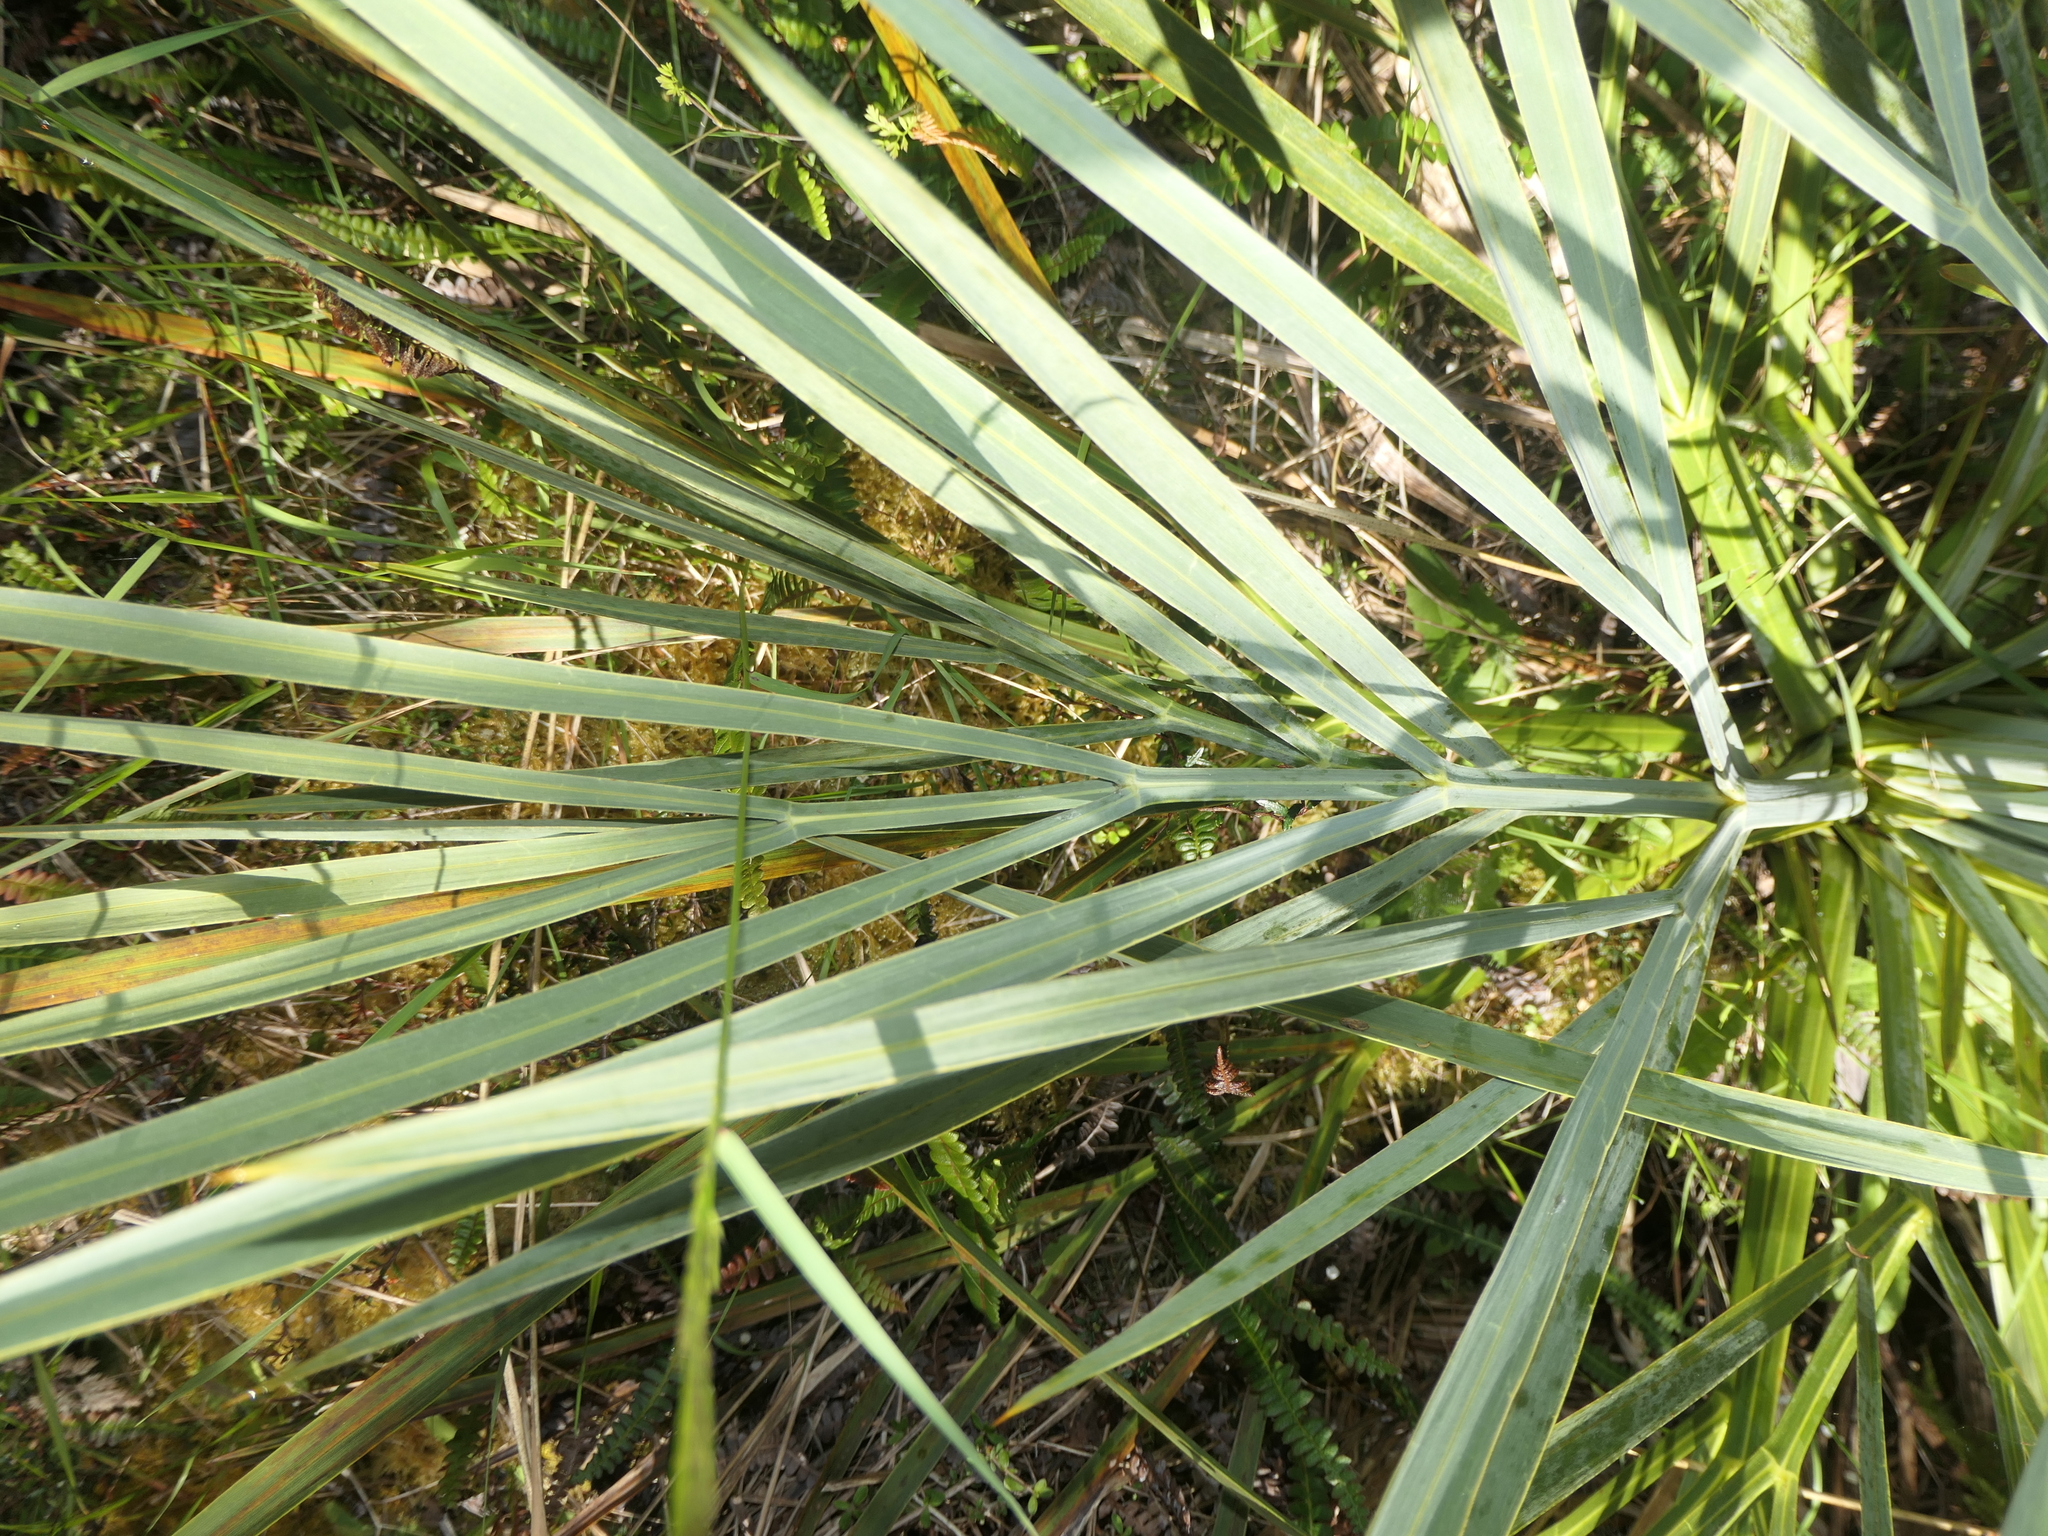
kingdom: Plantae
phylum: Tracheophyta
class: Magnoliopsida
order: Apiales
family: Apiaceae
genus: Aciphylla
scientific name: Aciphylla scott-thomsonii
